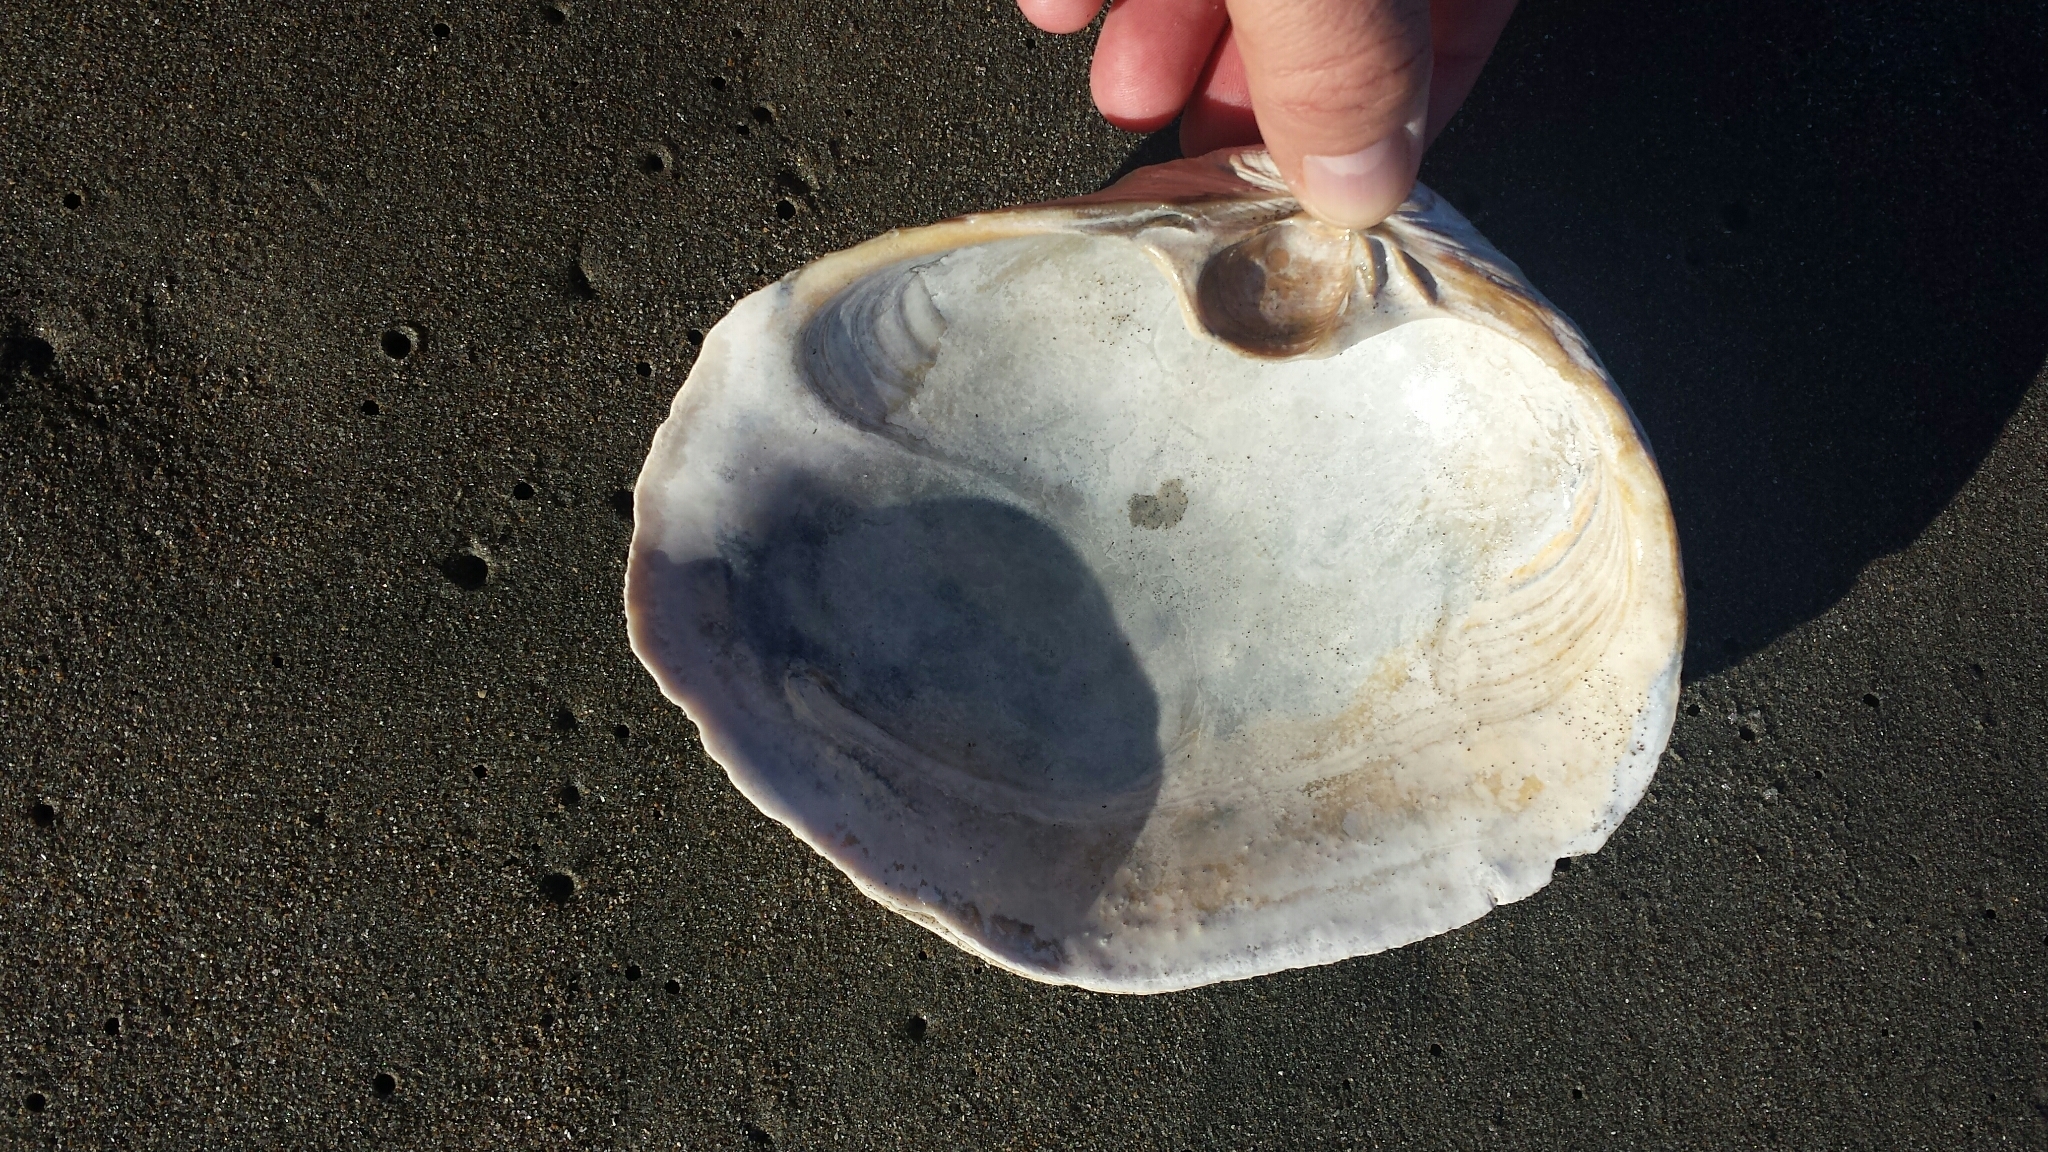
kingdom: Animalia
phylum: Mollusca
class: Bivalvia
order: Venerida
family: Mactridae
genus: Tresus
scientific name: Tresus capax
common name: Fat gaper
